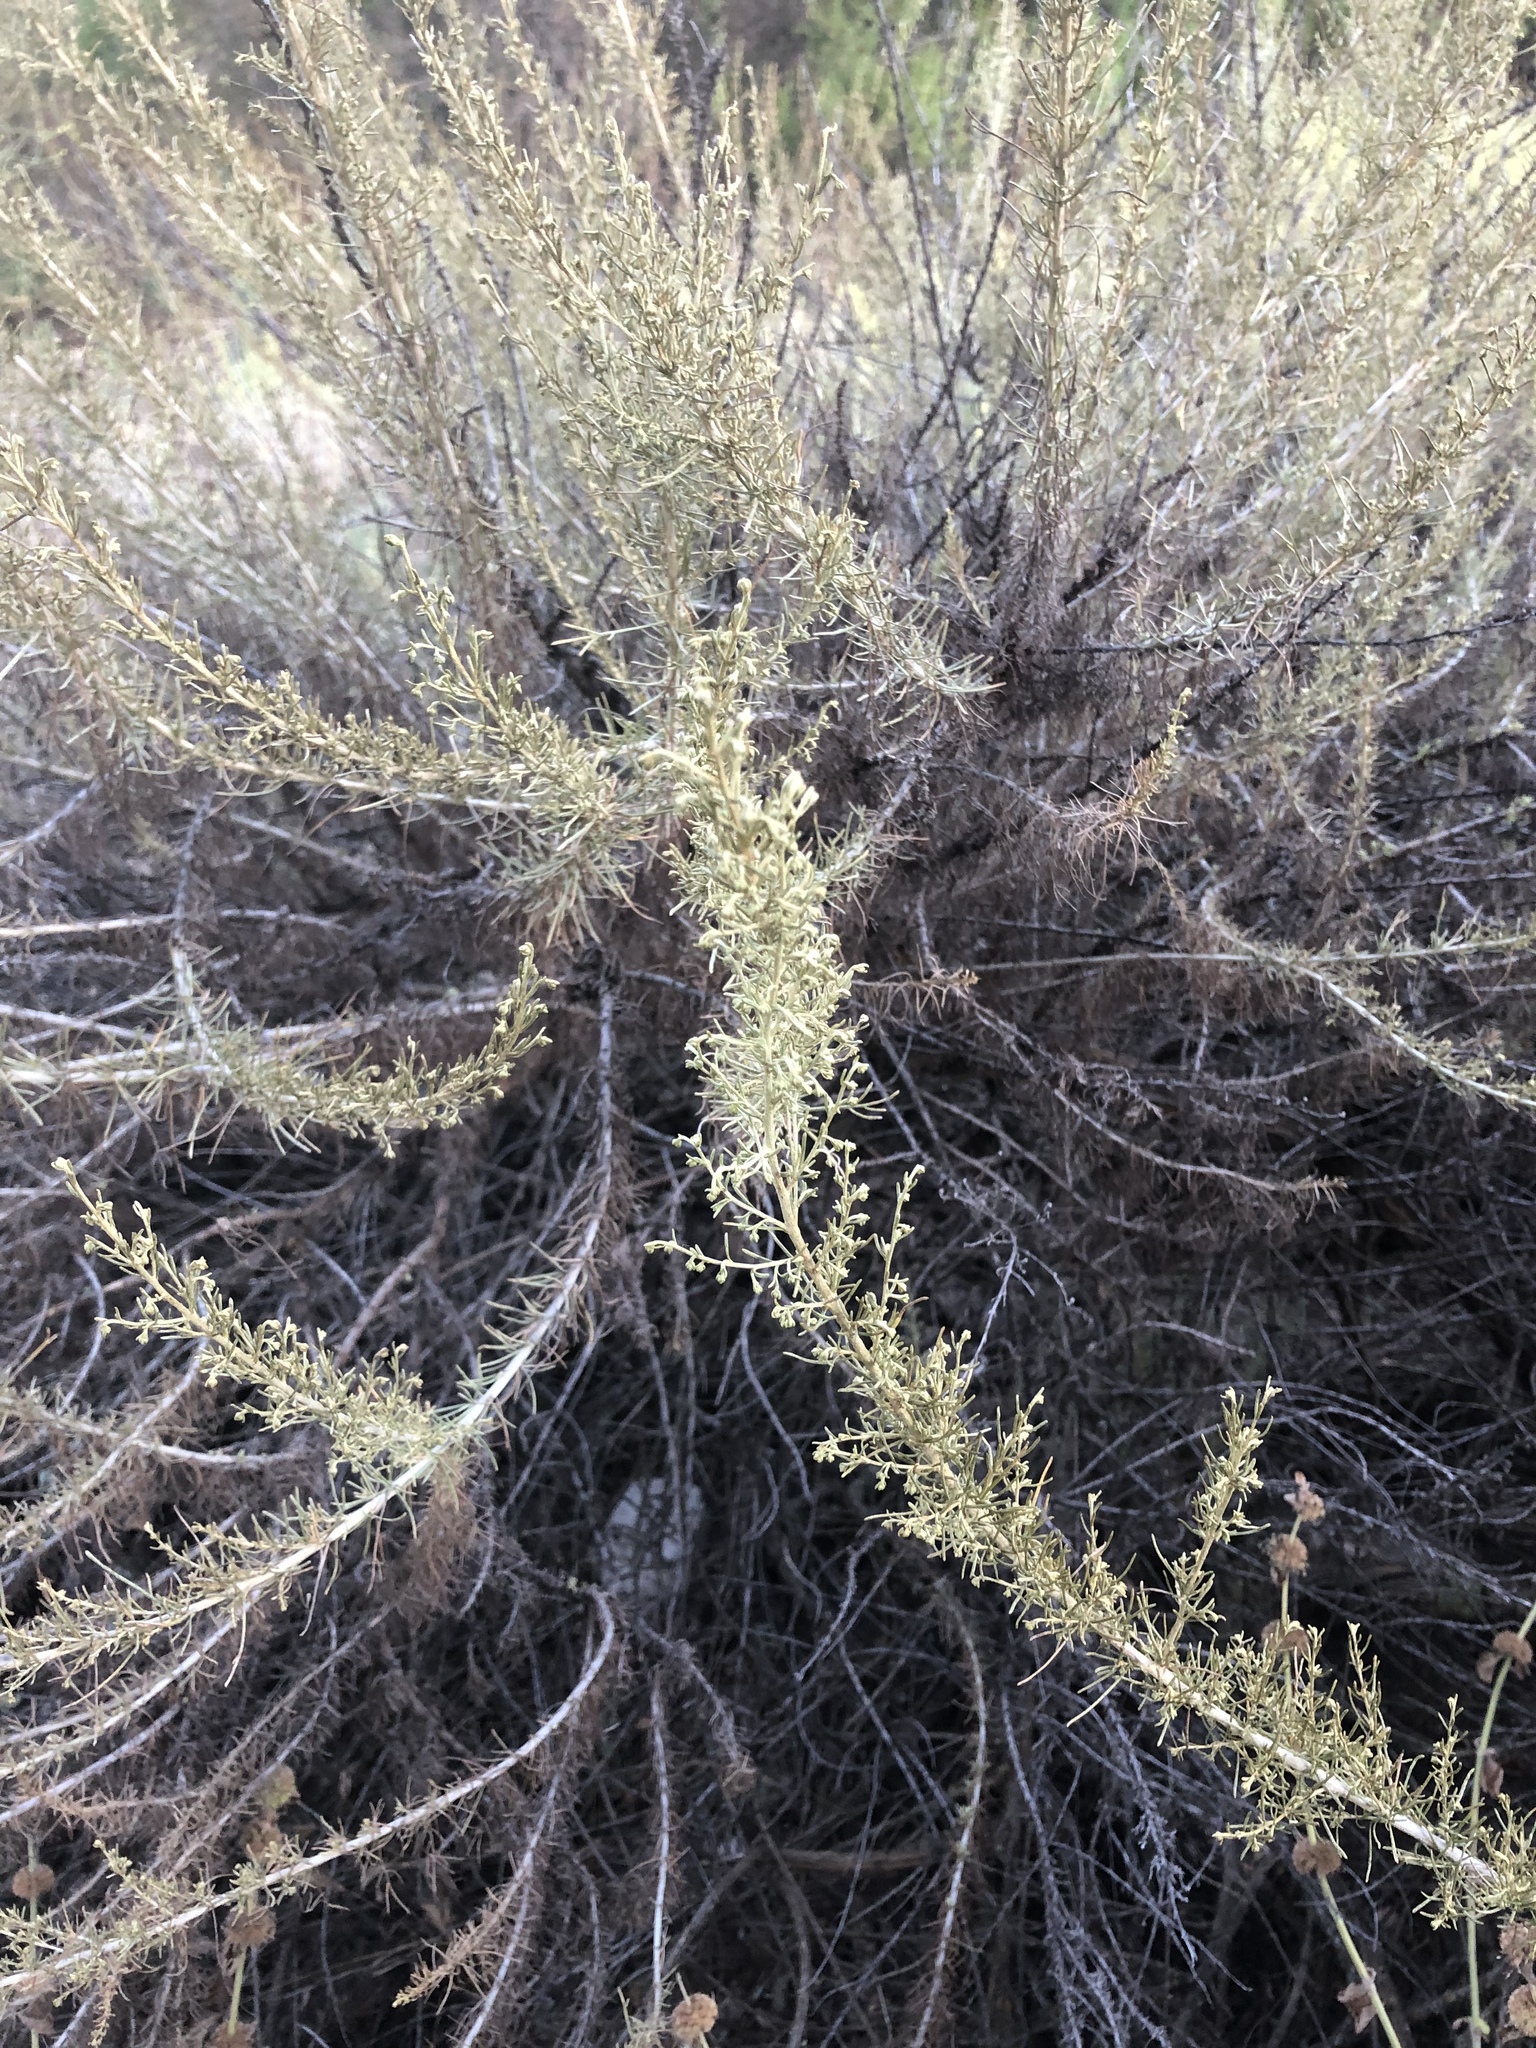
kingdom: Plantae
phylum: Tracheophyta
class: Magnoliopsida
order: Asterales
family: Asteraceae
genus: Artemisia
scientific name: Artemisia californica
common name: California sagebrush
